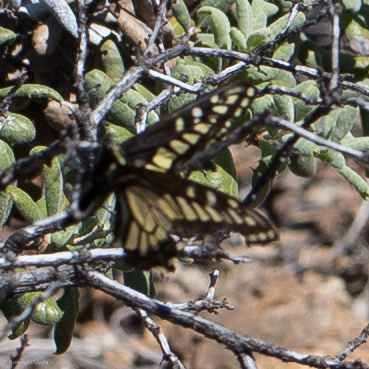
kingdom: Animalia
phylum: Arthropoda
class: Insecta
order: Lepidoptera
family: Papilionidae
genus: Papilio
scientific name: Papilio zelicaon
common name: Anise swallowtail
